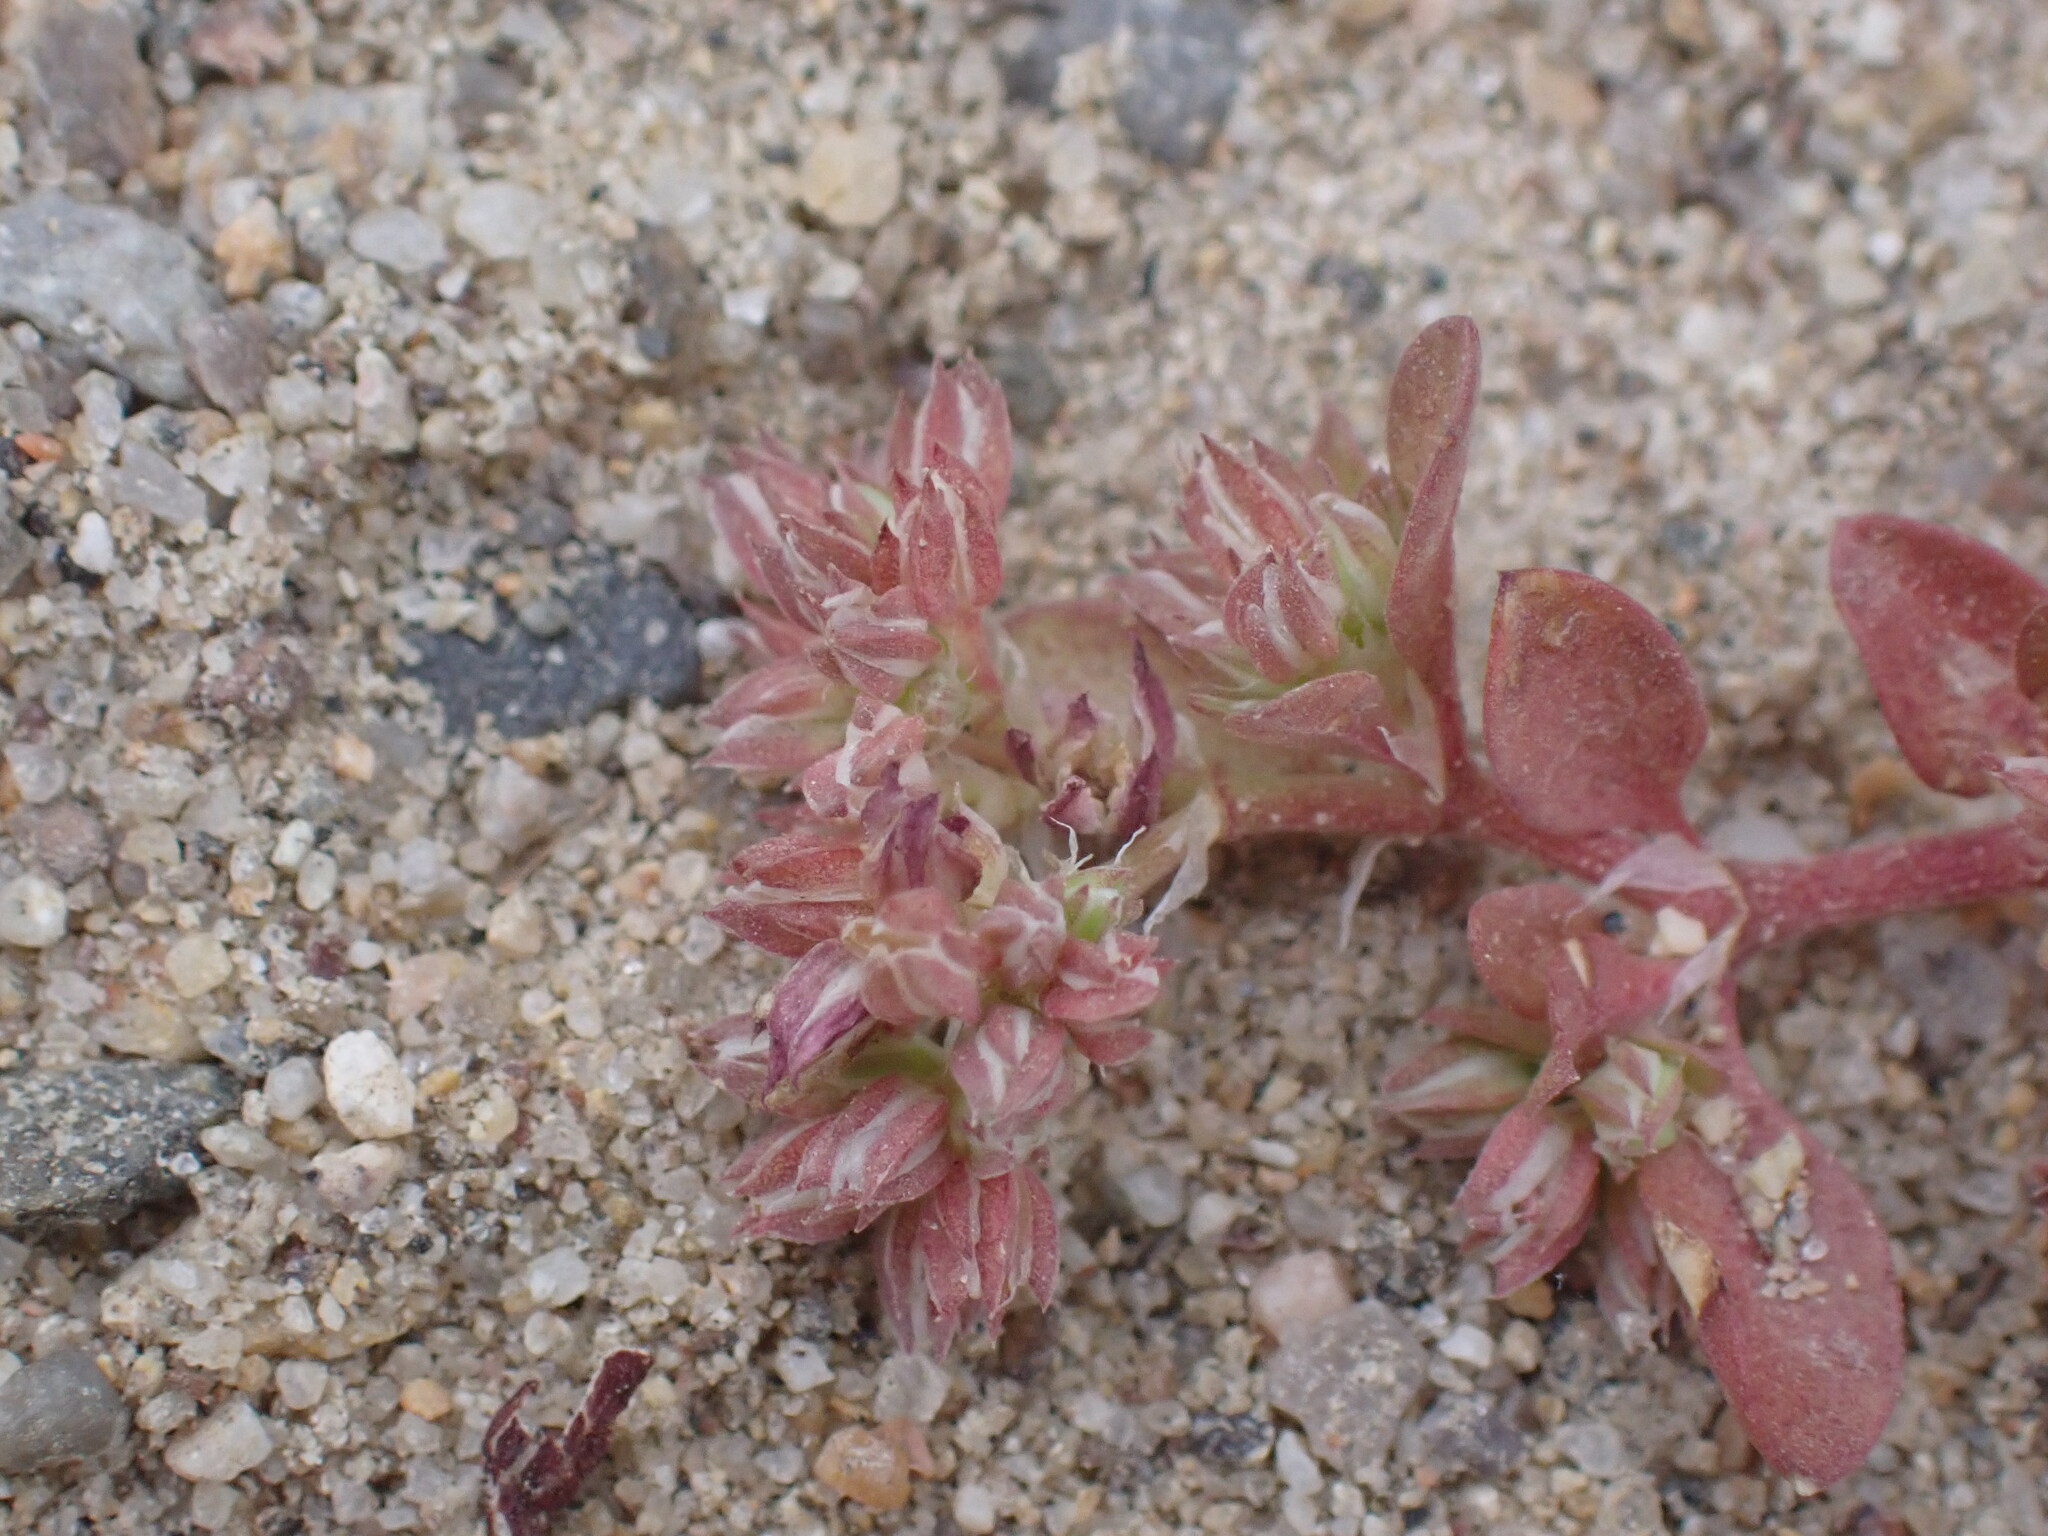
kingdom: Plantae
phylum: Tracheophyta
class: Magnoliopsida
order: Caryophyllales
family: Caryophyllaceae
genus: Polycarpon
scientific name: Polycarpon tetraphyllum
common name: Four-leaved all-seed
